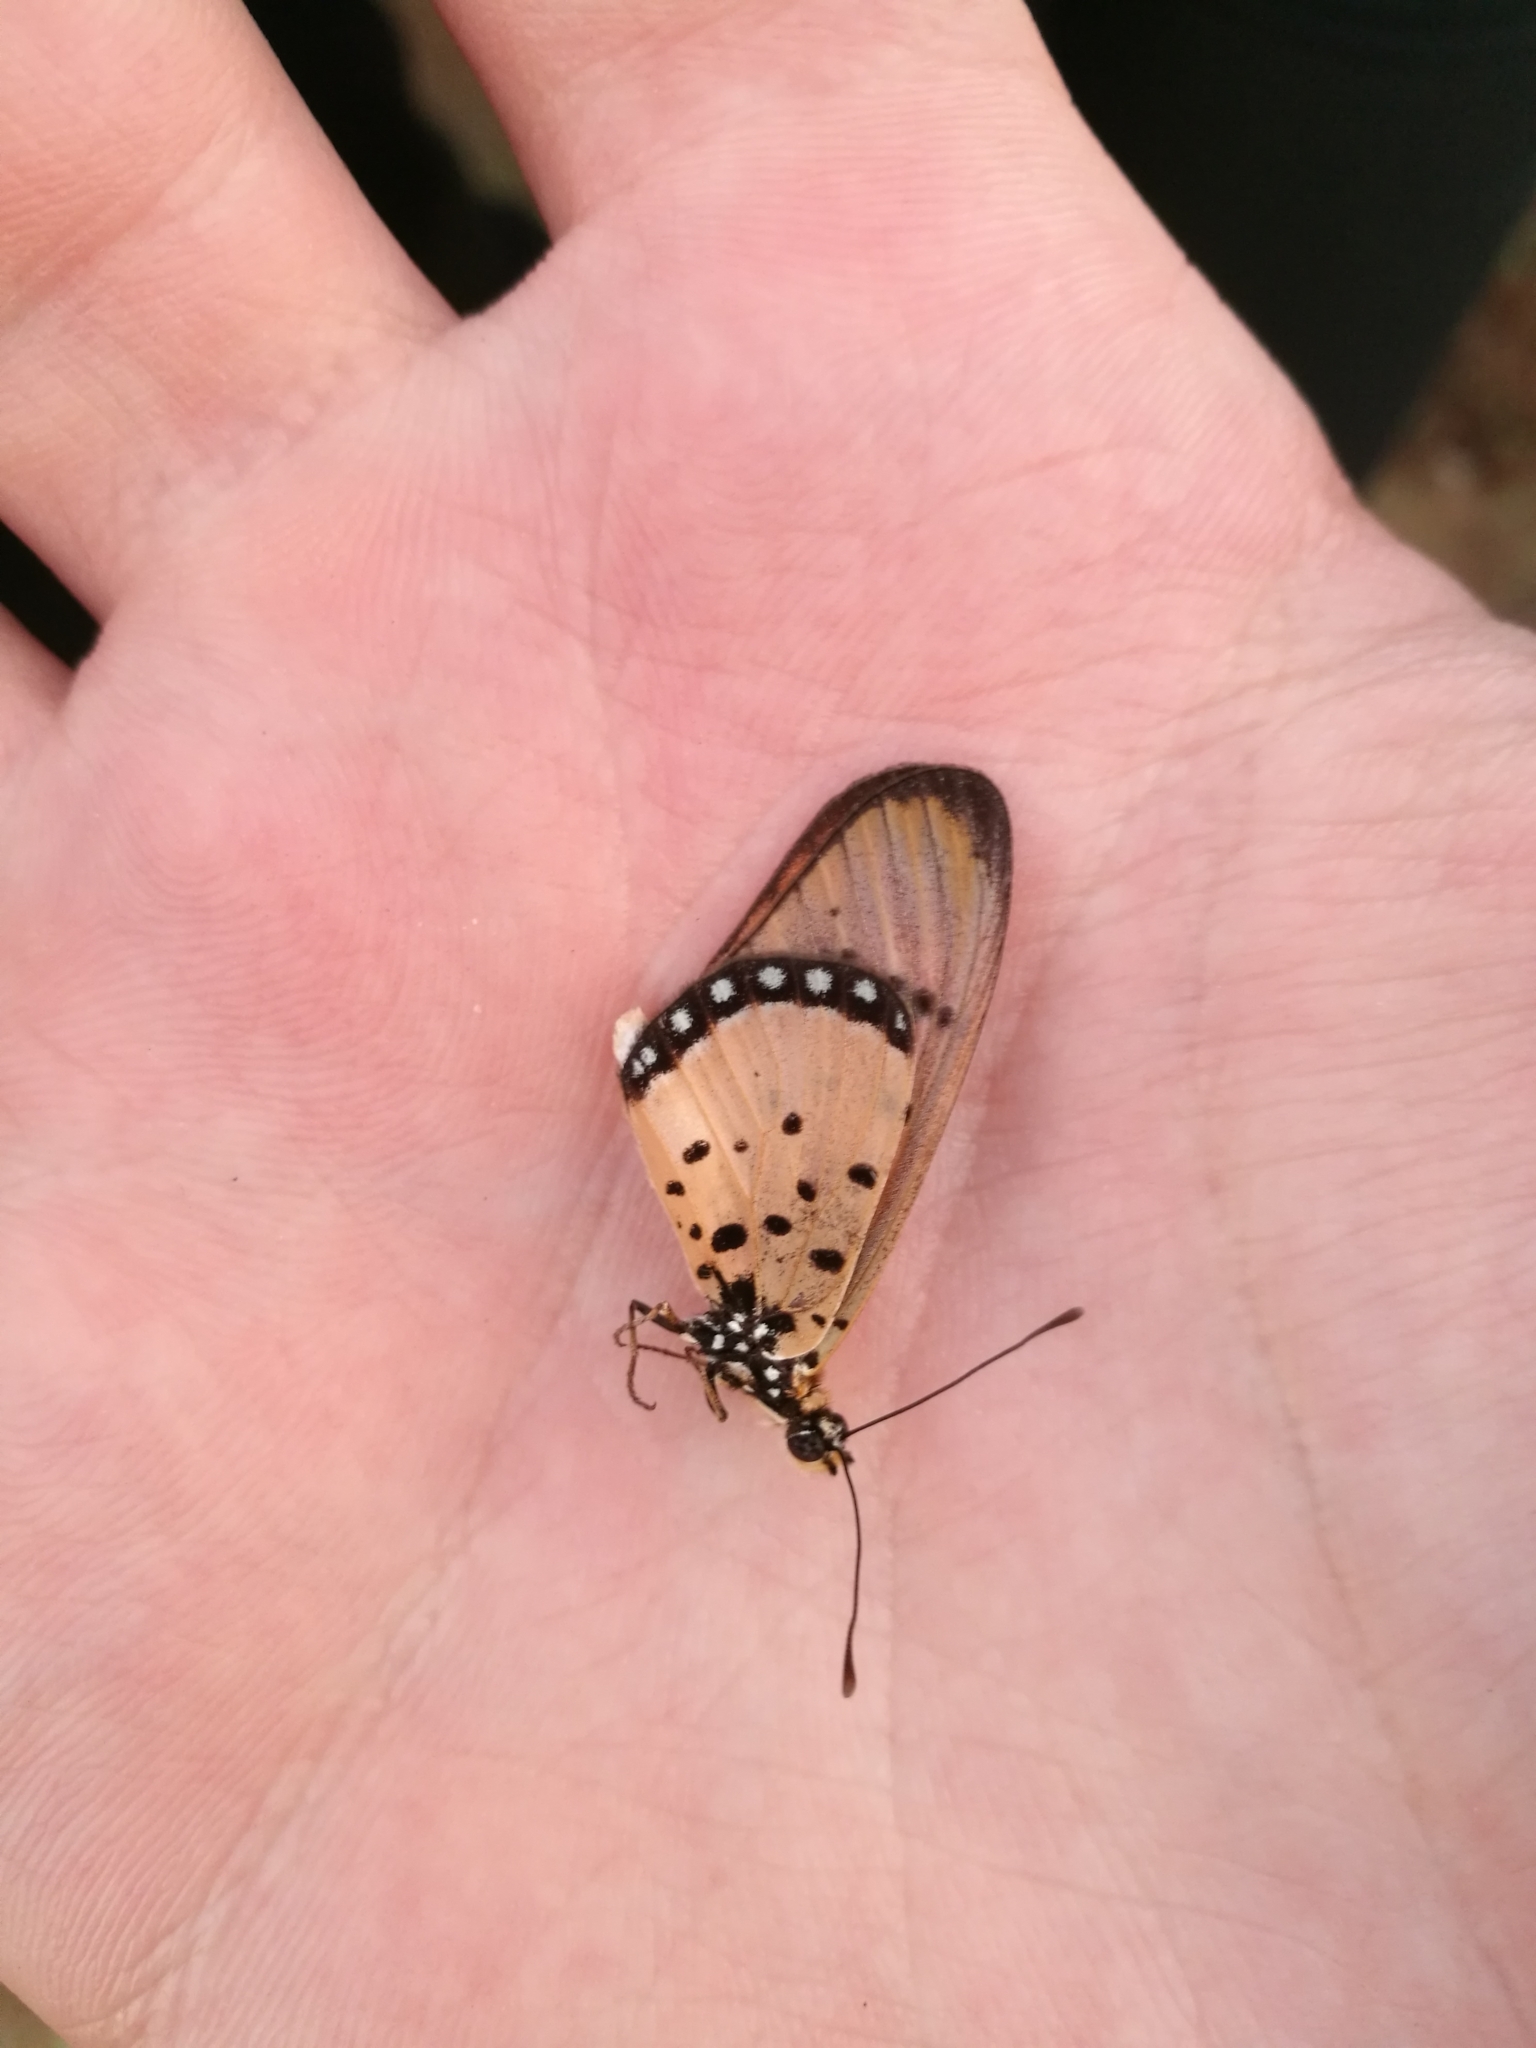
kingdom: Animalia
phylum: Arthropoda
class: Insecta
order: Lepidoptera
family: Nymphalidae
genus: Stephenia
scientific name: Stephenia
